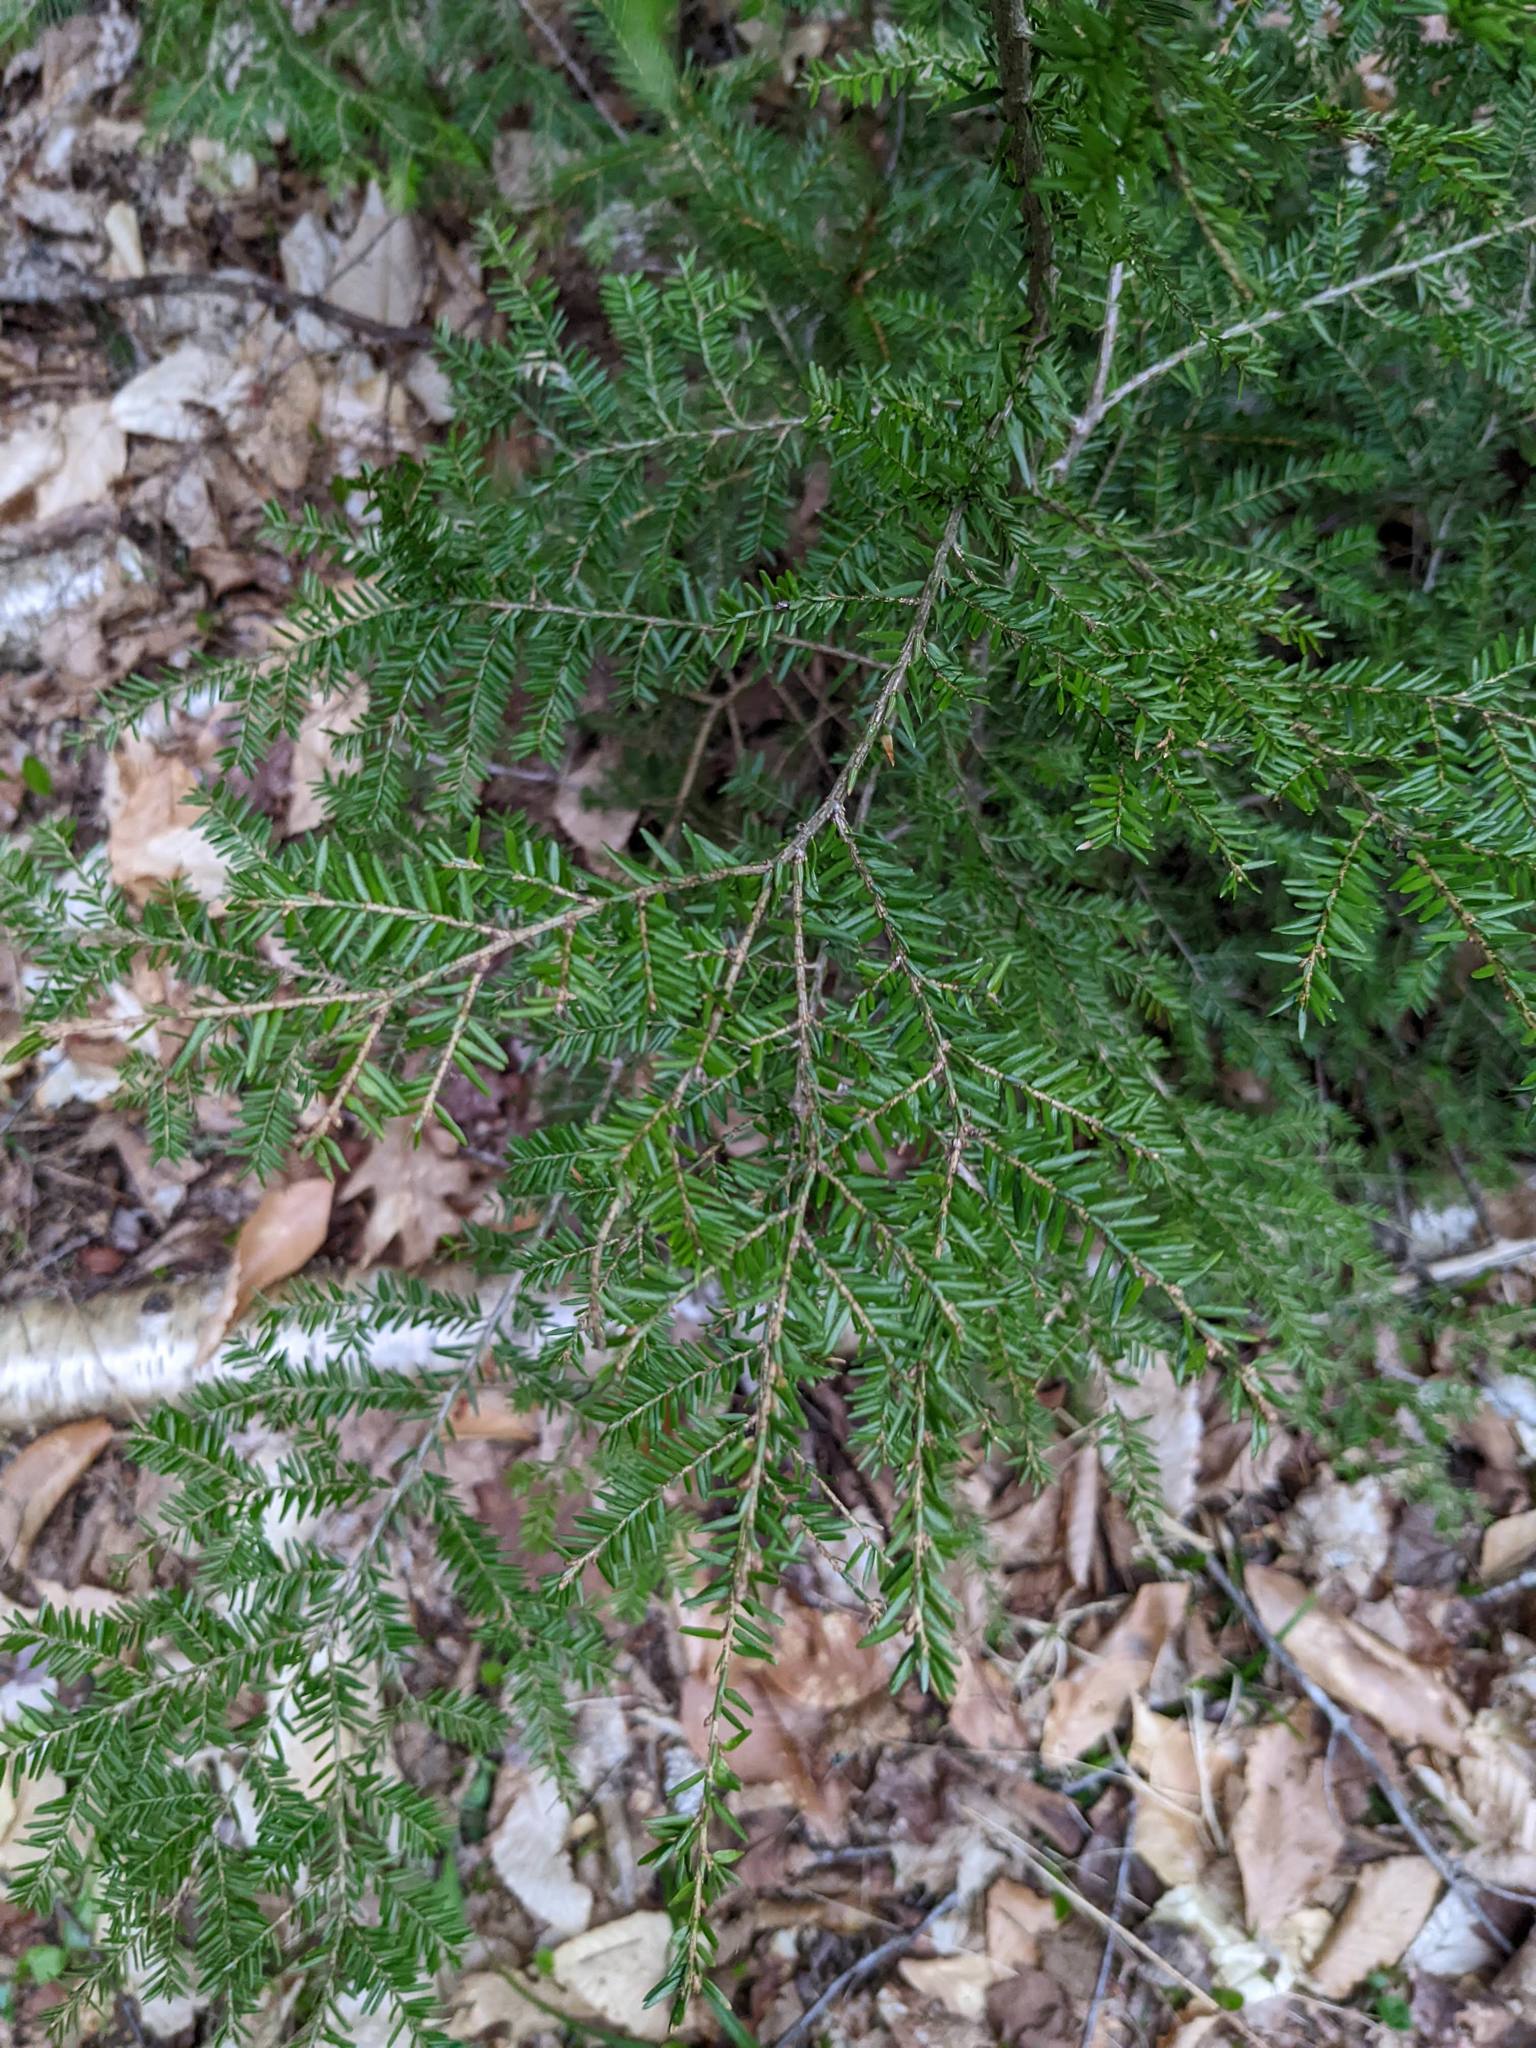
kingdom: Plantae
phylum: Tracheophyta
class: Pinopsida
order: Pinales
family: Pinaceae
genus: Tsuga
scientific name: Tsuga canadensis
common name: Eastern hemlock
